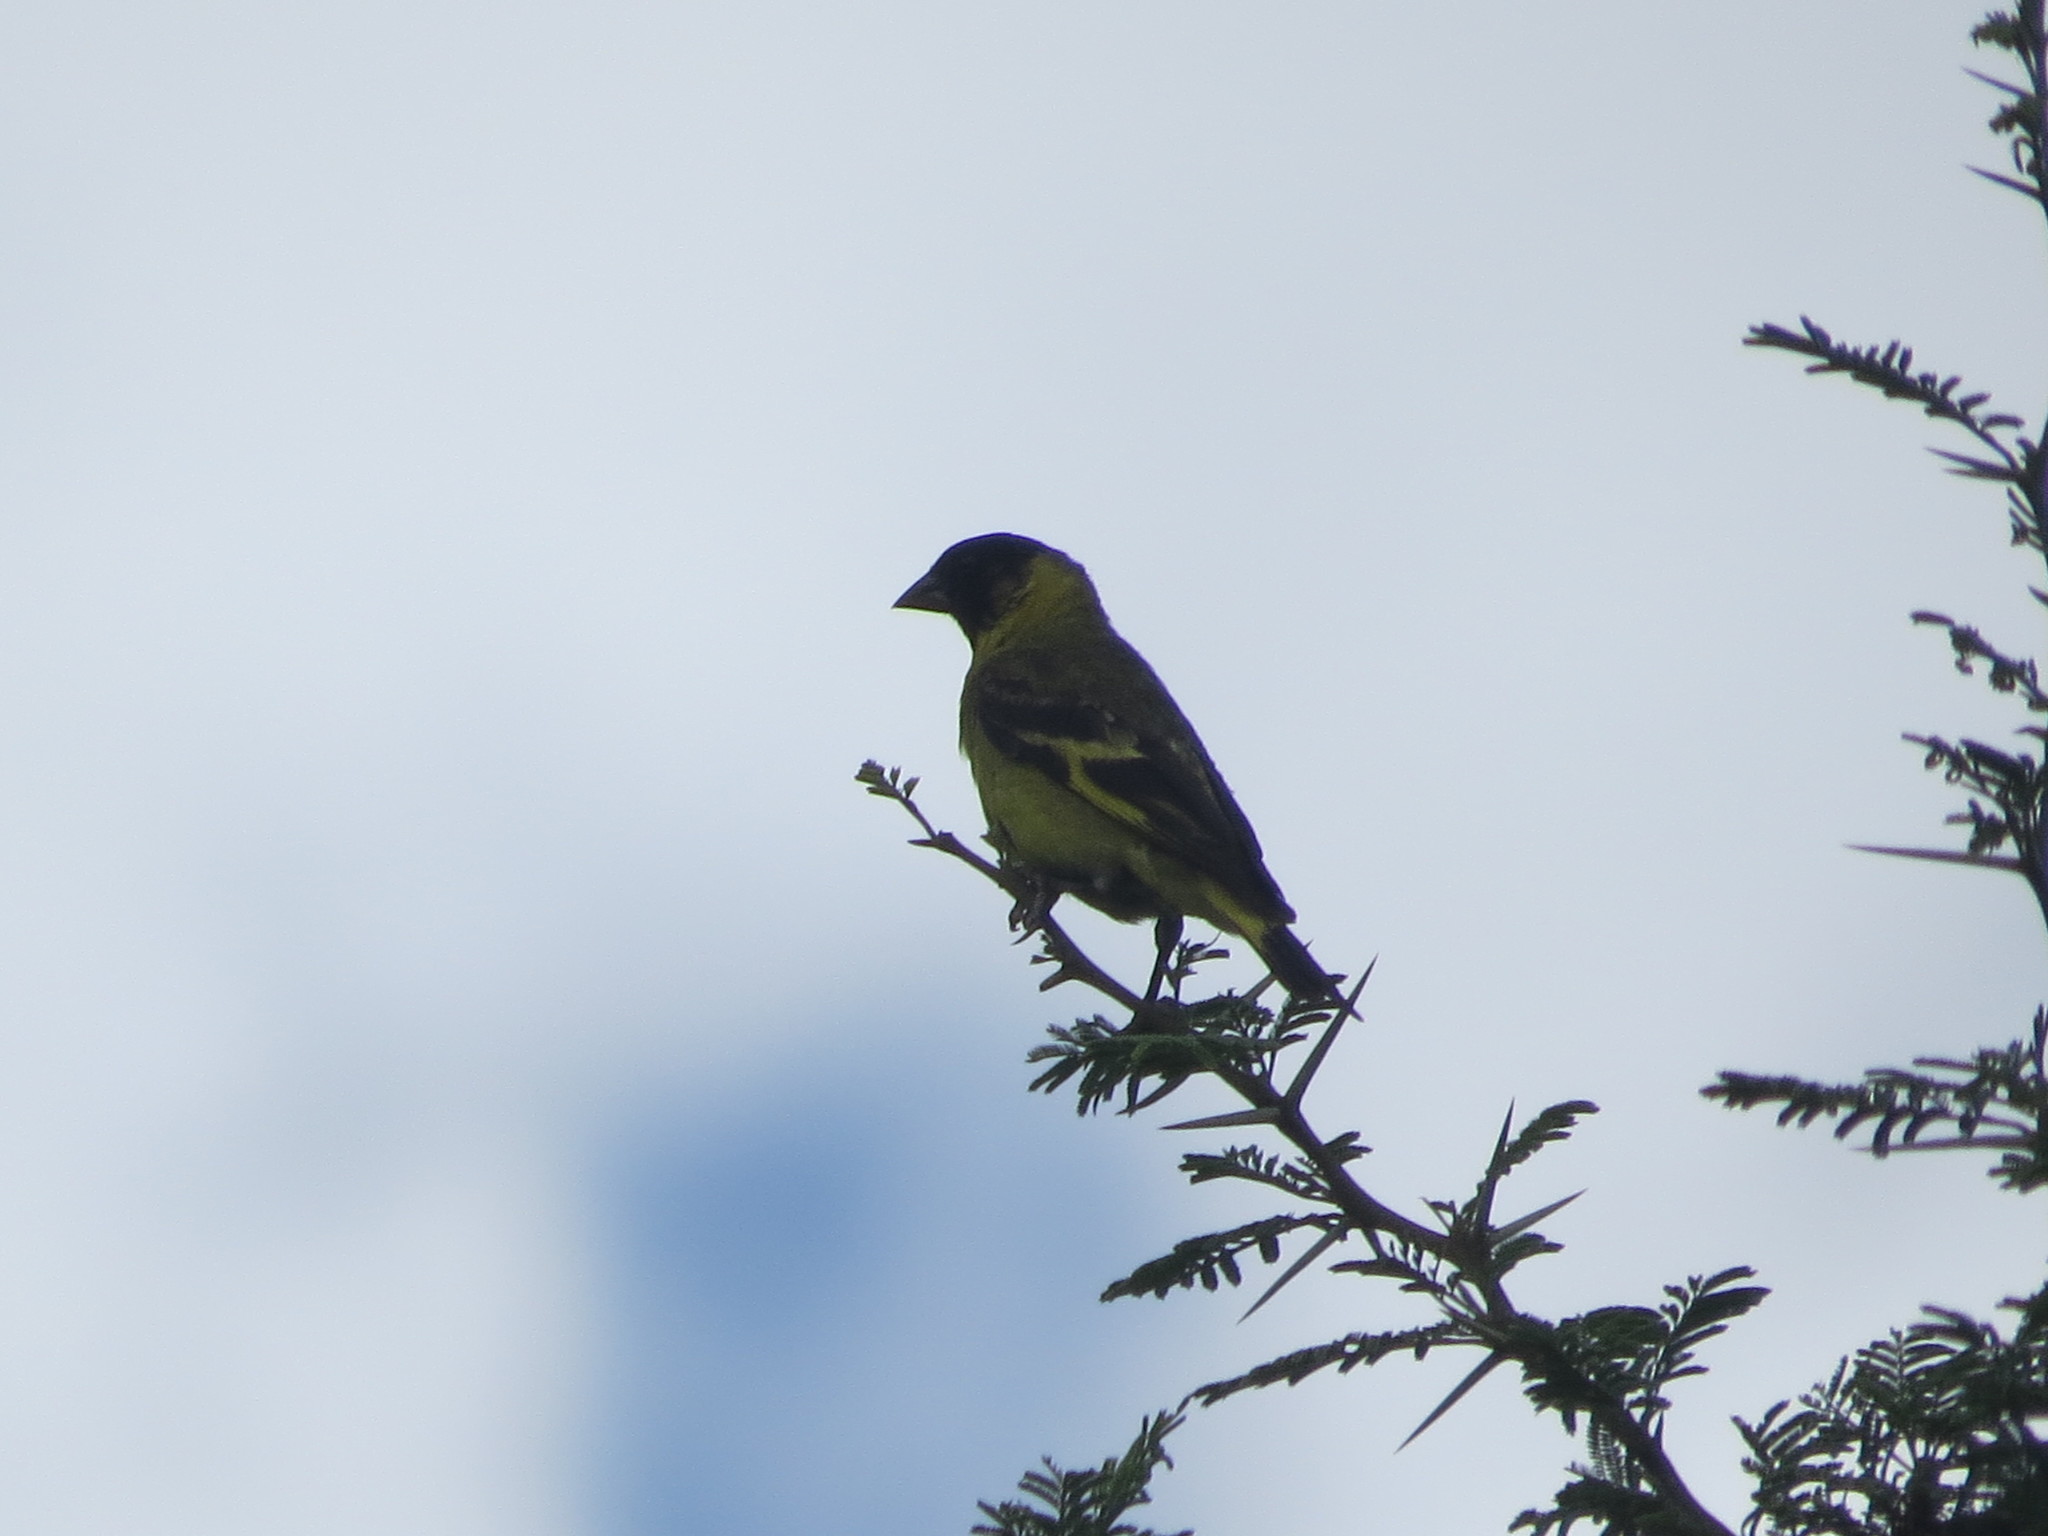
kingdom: Animalia
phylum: Chordata
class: Aves
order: Passeriformes
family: Fringillidae
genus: Spinus
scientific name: Spinus magellanicus
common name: Hooded siskin
